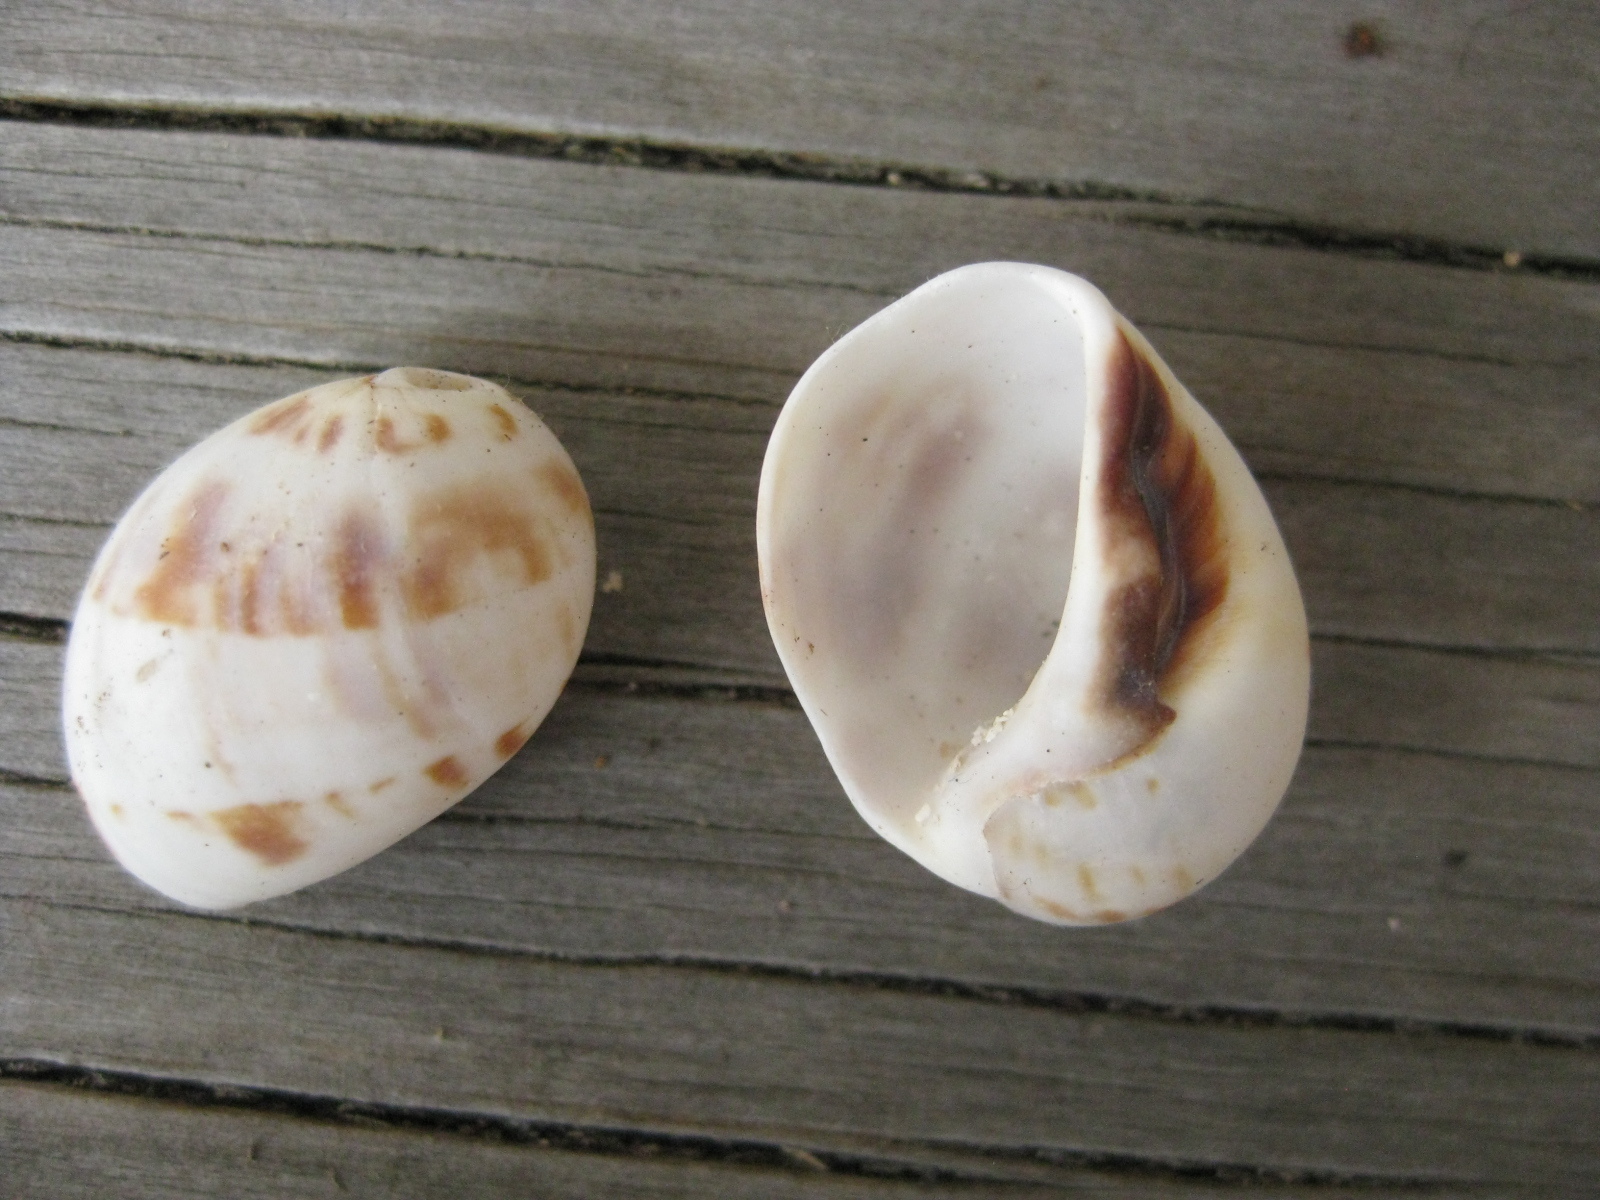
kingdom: Animalia
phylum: Mollusca
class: Gastropoda
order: Littorinimorpha
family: Naticidae
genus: Mammilla
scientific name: Mammilla simiae
